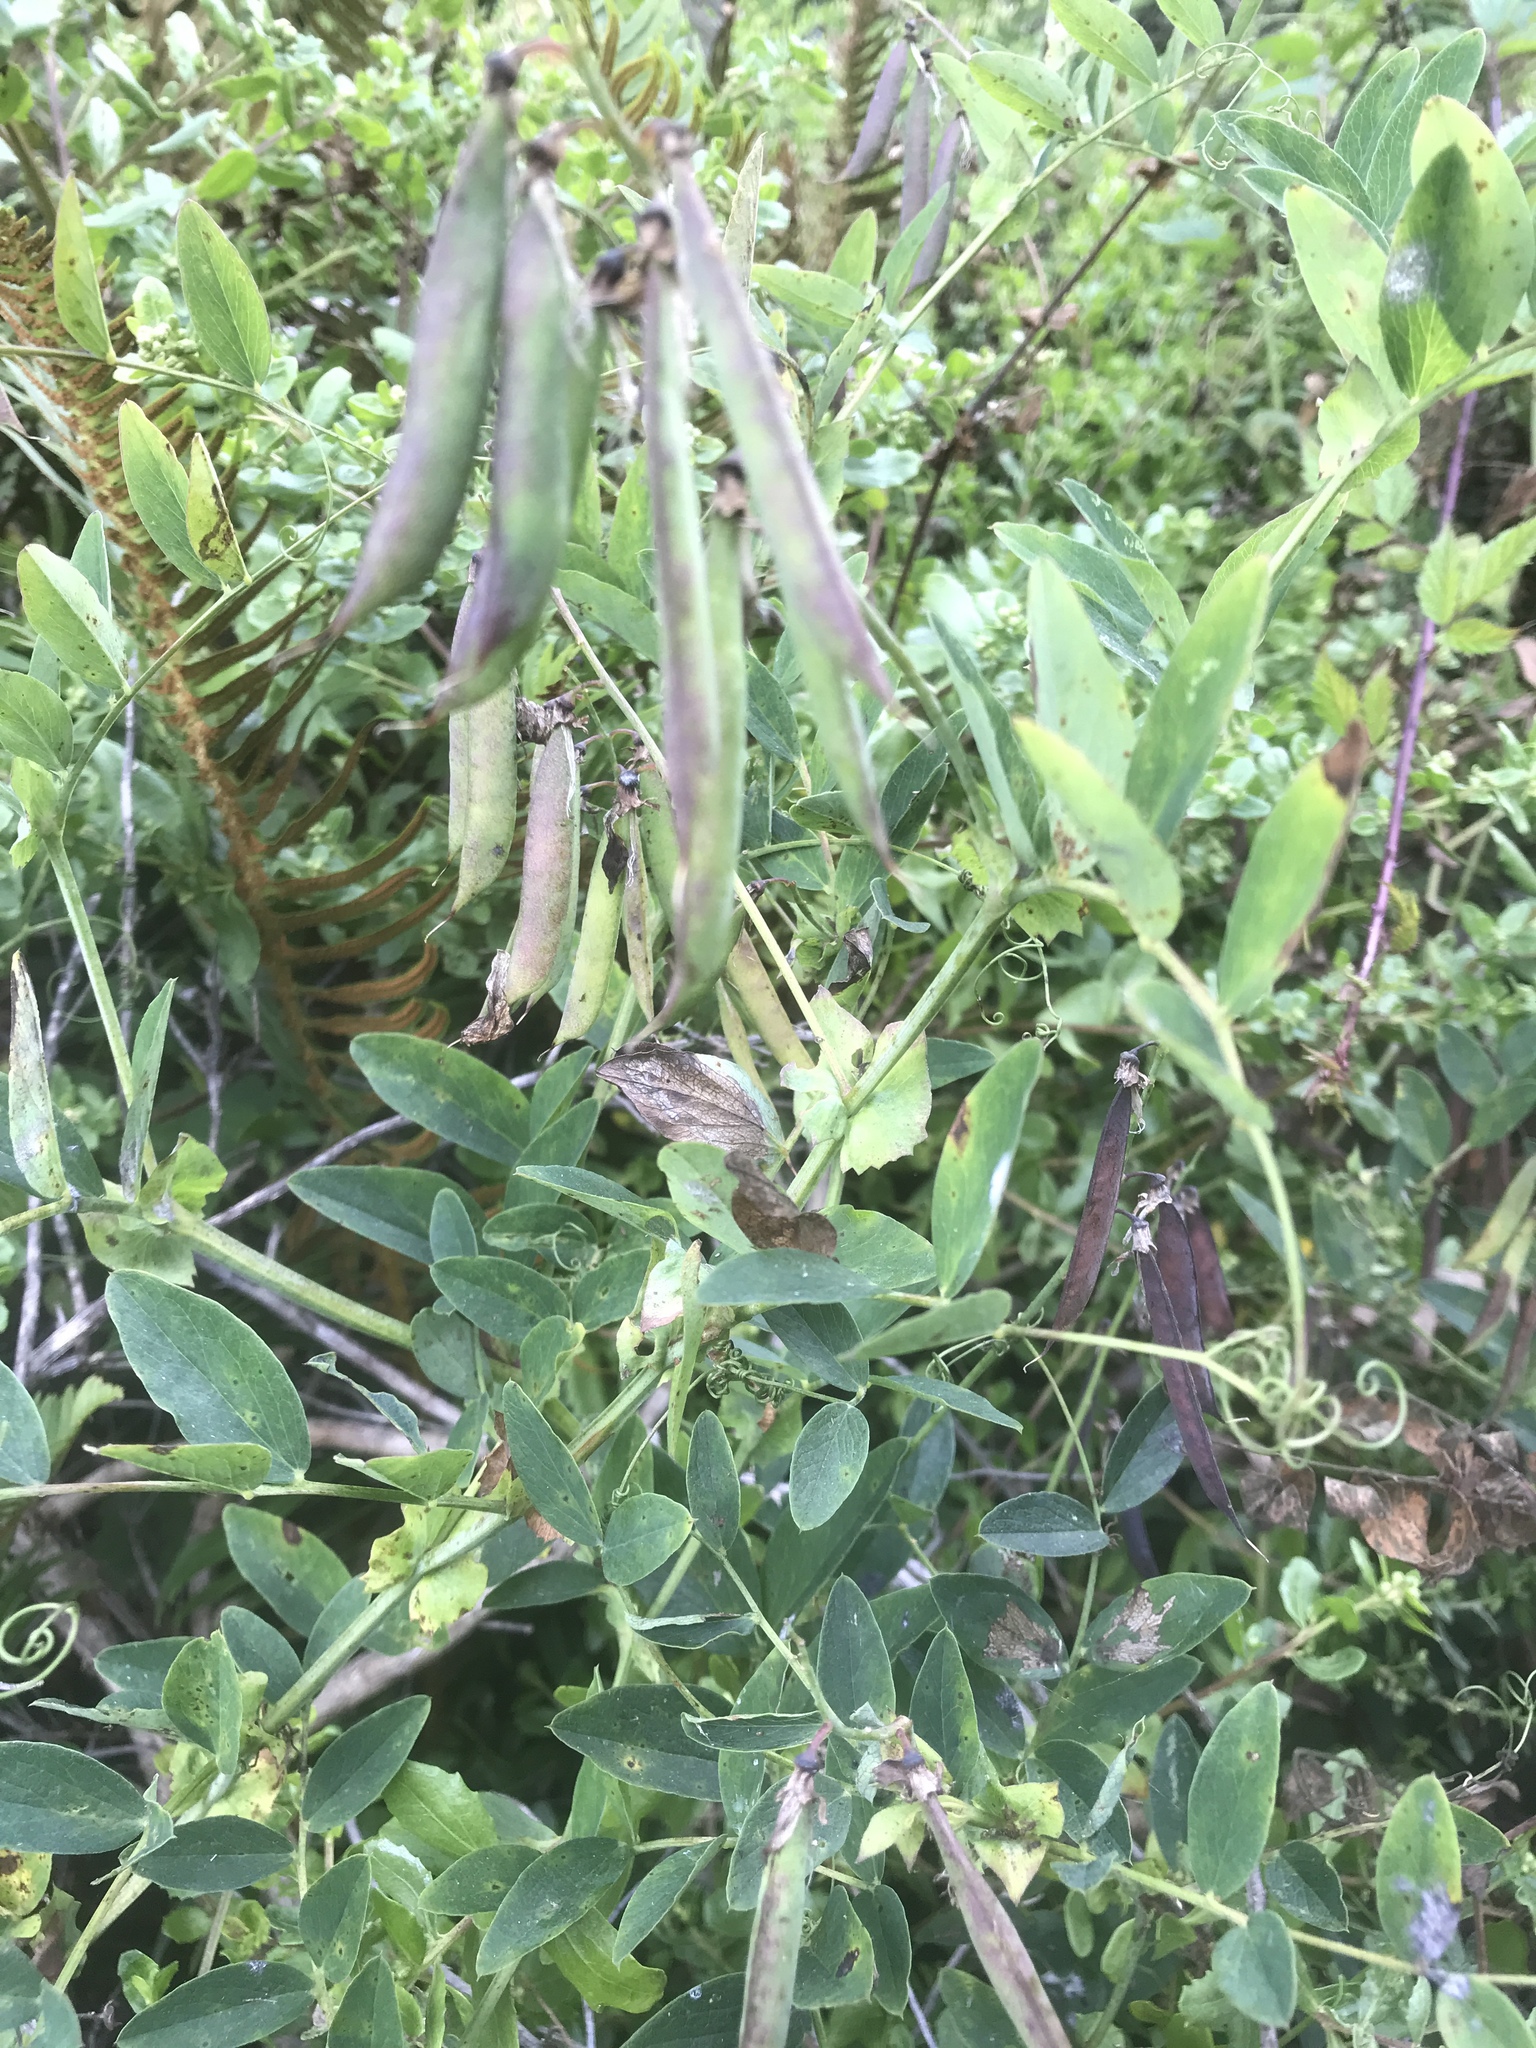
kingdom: Plantae
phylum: Tracheophyta
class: Magnoliopsida
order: Fabales
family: Fabaceae
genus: Lathyrus
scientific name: Lathyrus japonicus
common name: Sea pea
